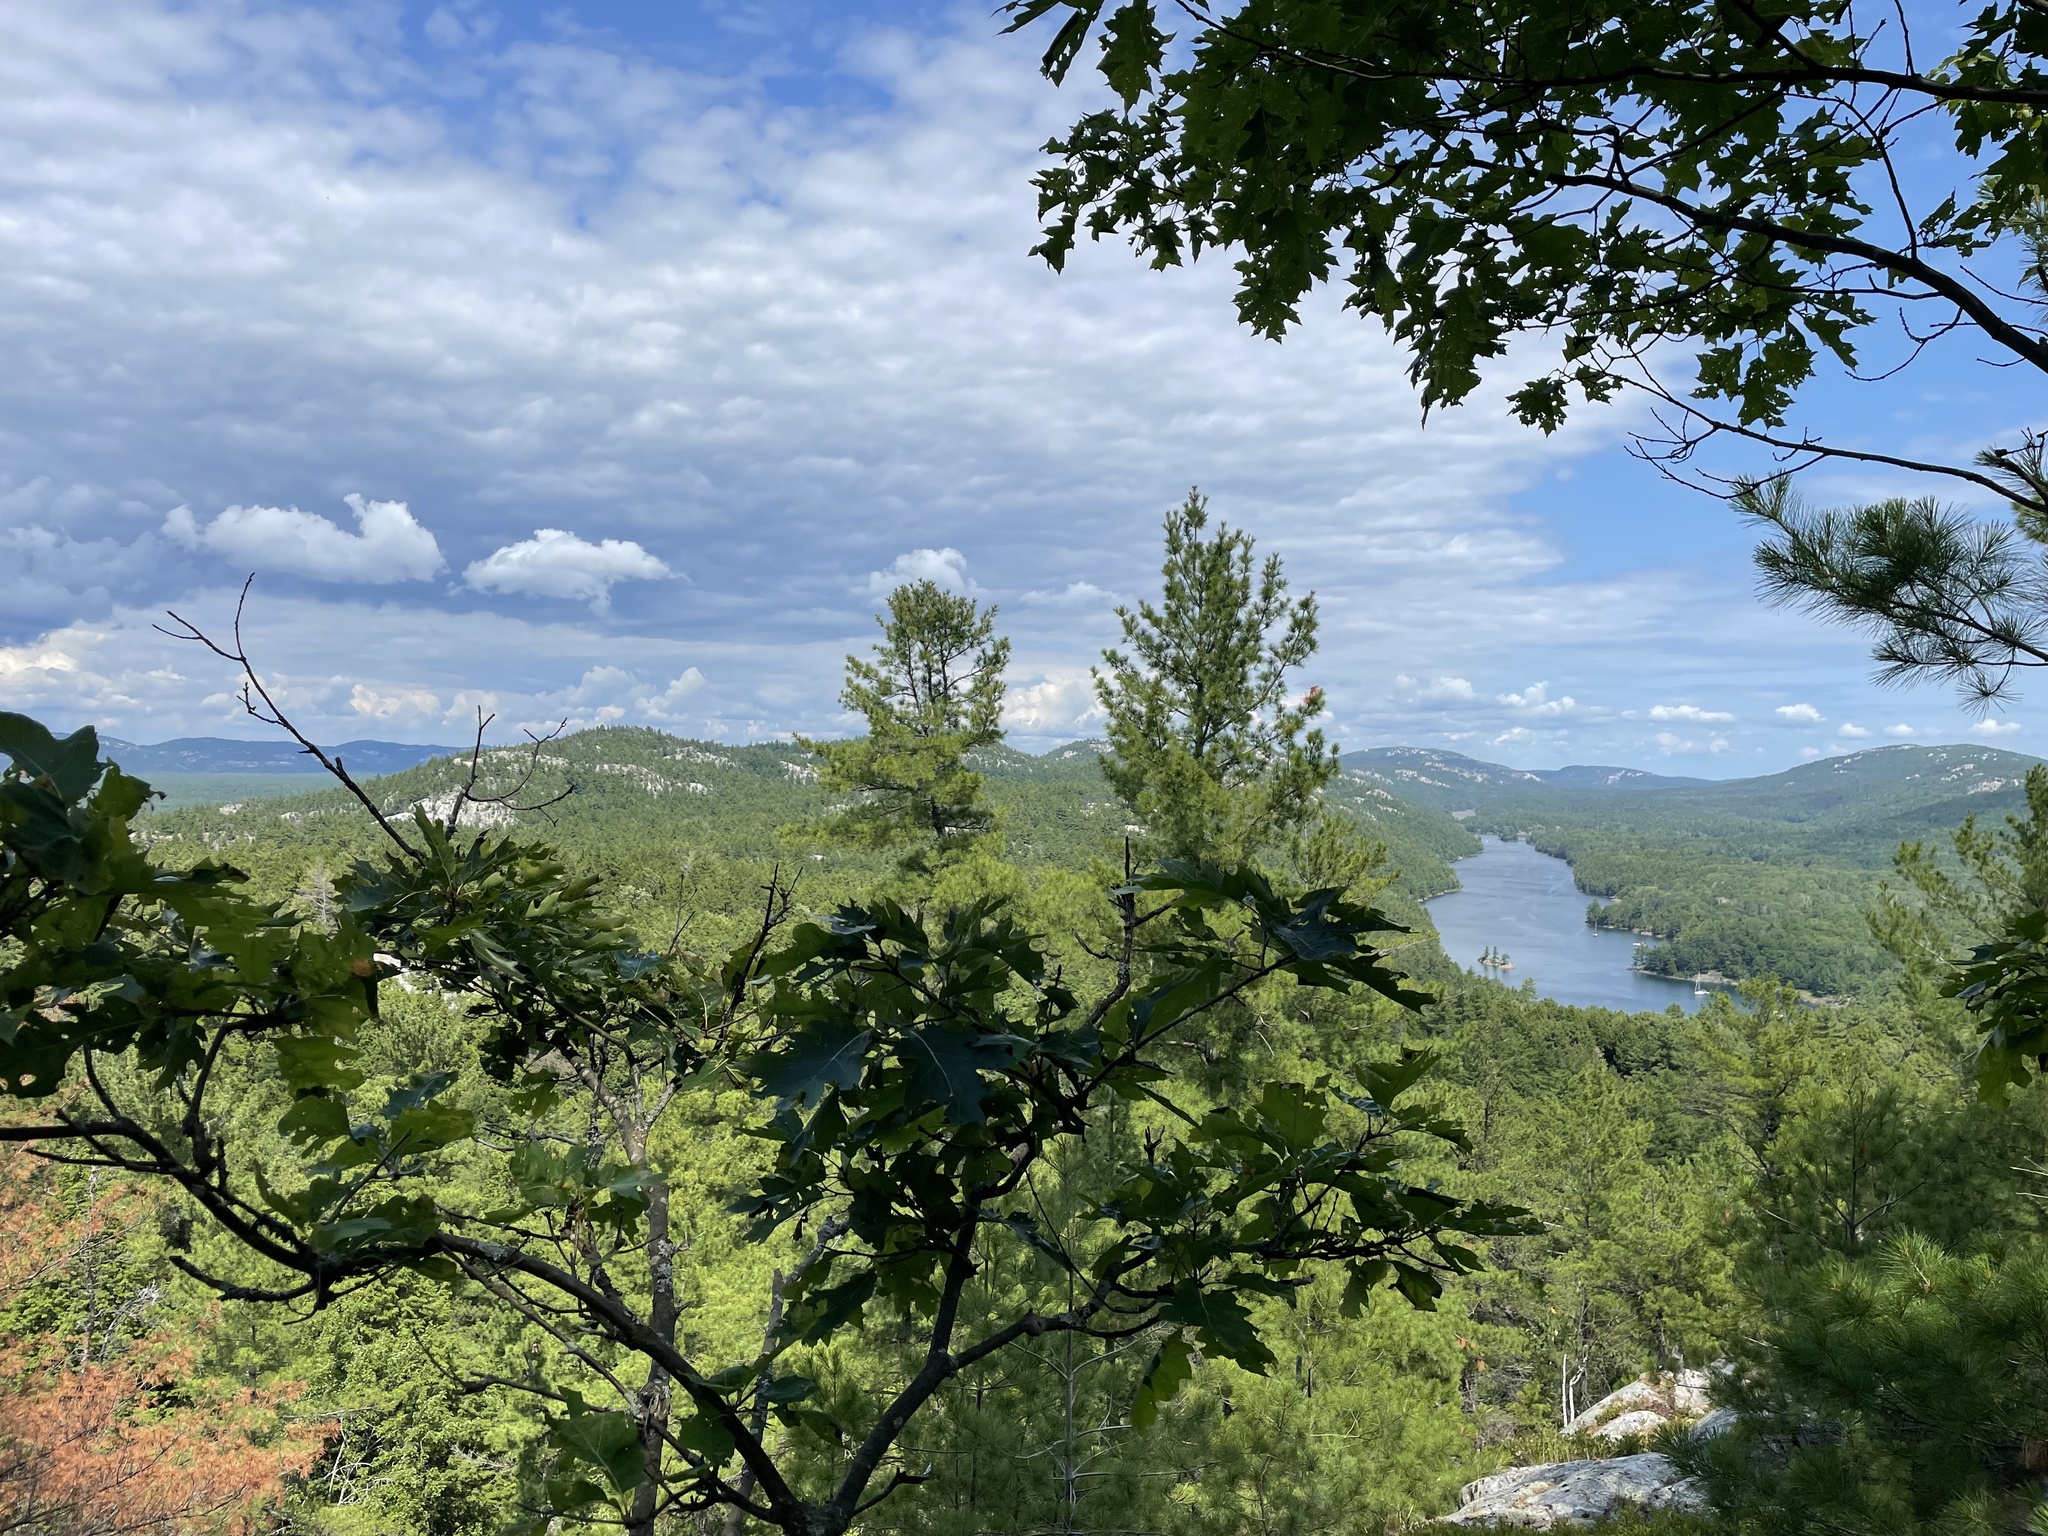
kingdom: Plantae
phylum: Tracheophyta
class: Magnoliopsida
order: Fagales
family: Fagaceae
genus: Quercus
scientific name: Quercus rubra
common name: Red oak
